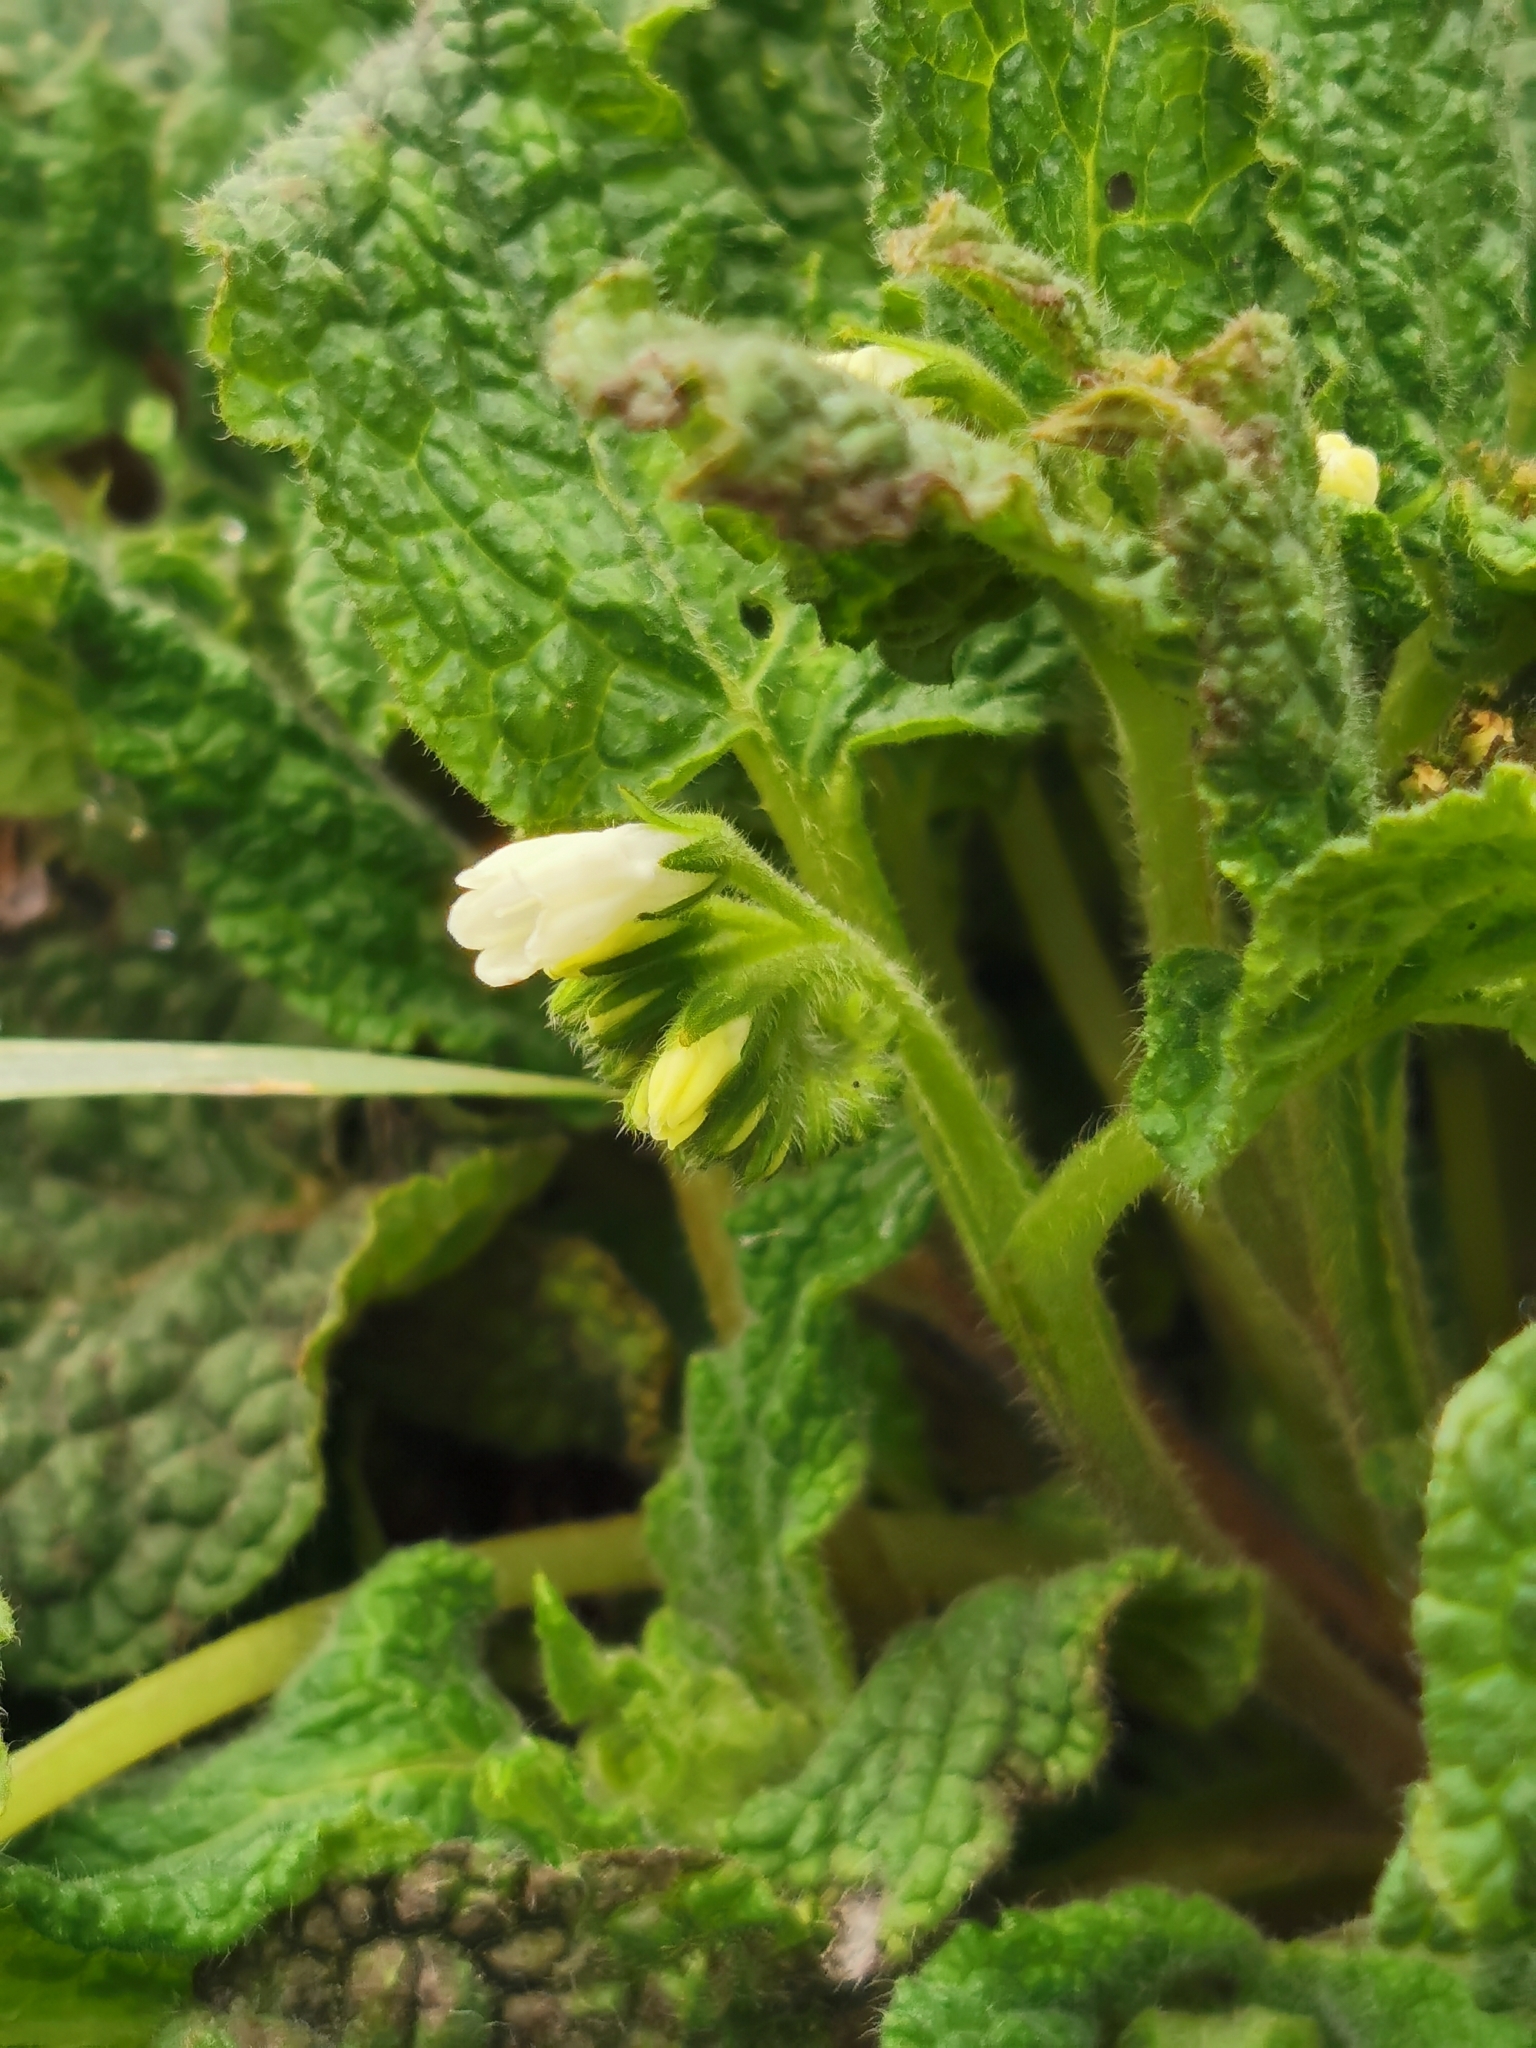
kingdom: Plantae
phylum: Tracheophyta
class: Magnoliopsida
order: Boraginales
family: Boraginaceae
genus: Symphytum
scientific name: Symphytum tauricum
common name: Crimean comfrey
